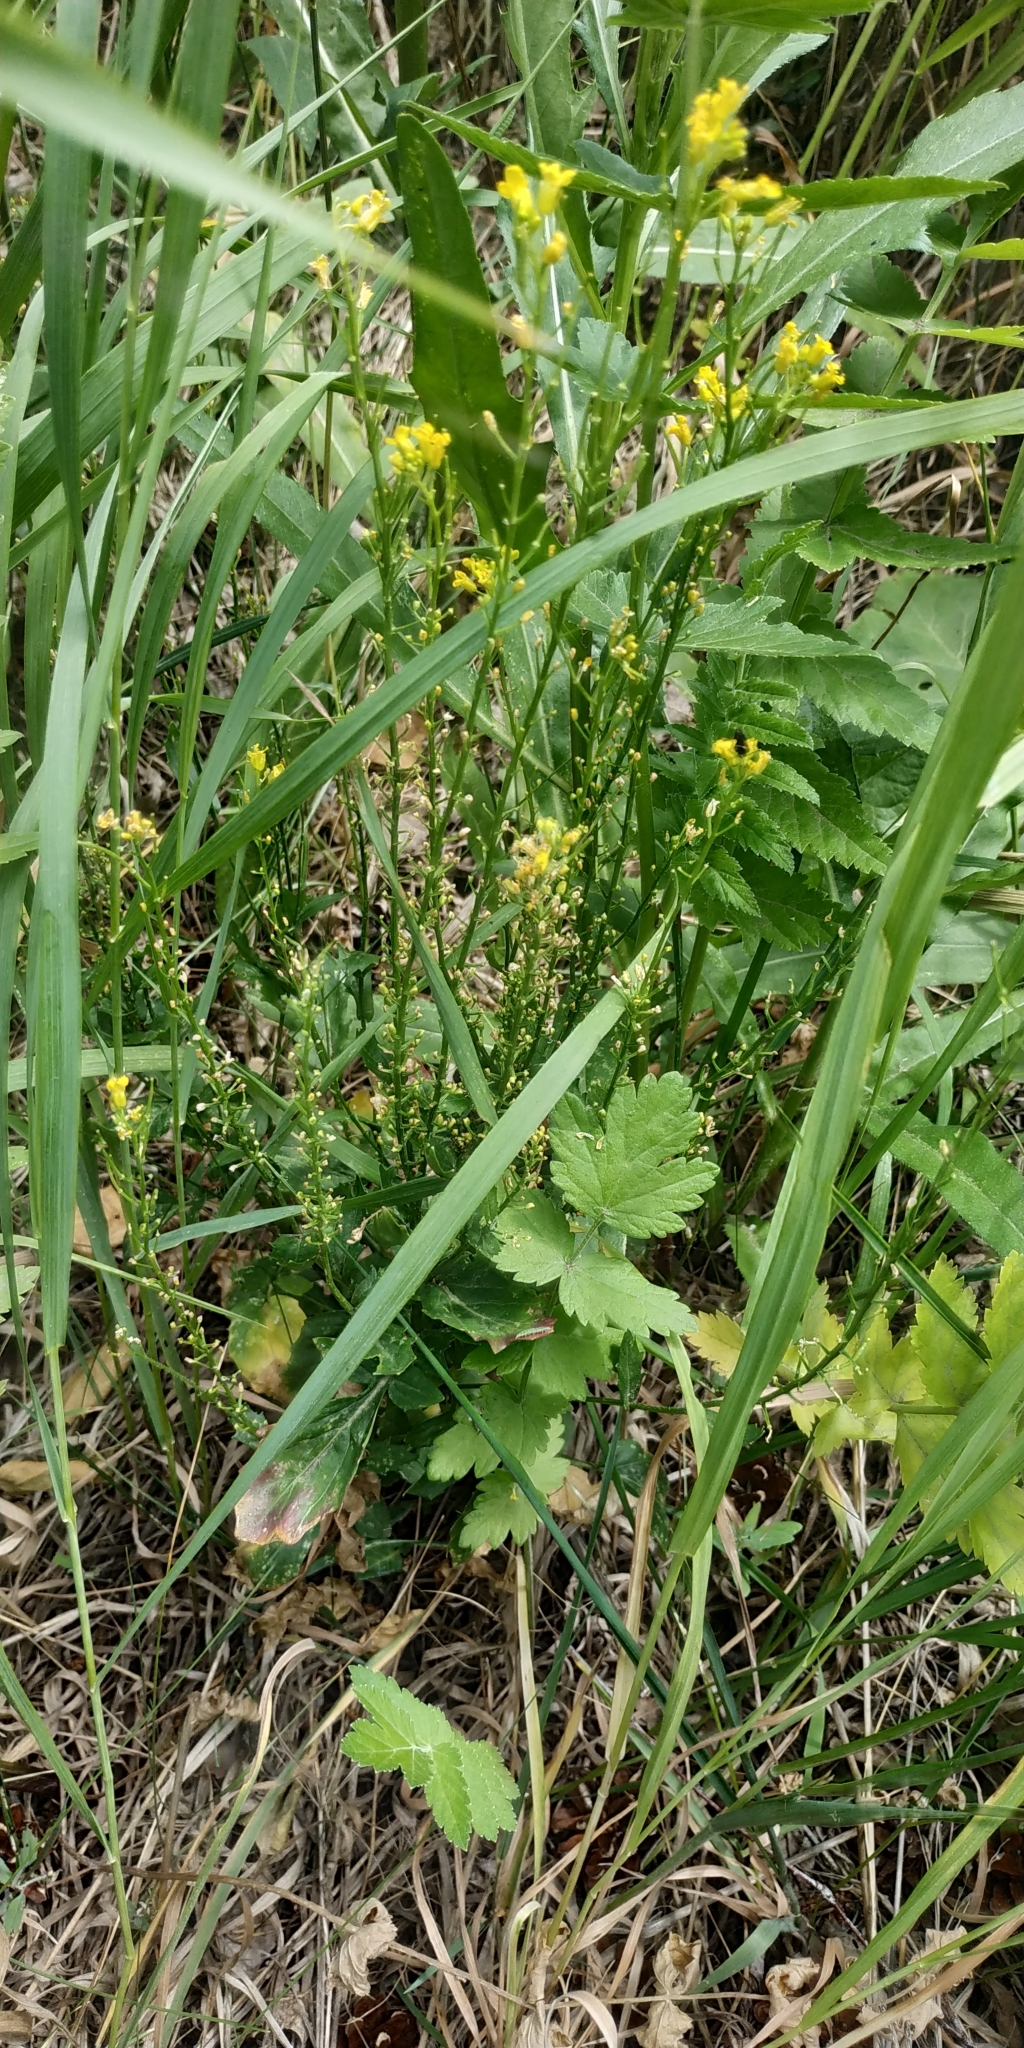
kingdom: Plantae
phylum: Tracheophyta
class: Magnoliopsida
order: Brassicales
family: Brassicaceae
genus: Barbarea
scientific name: Barbarea vulgaris
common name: Cressy-greens
